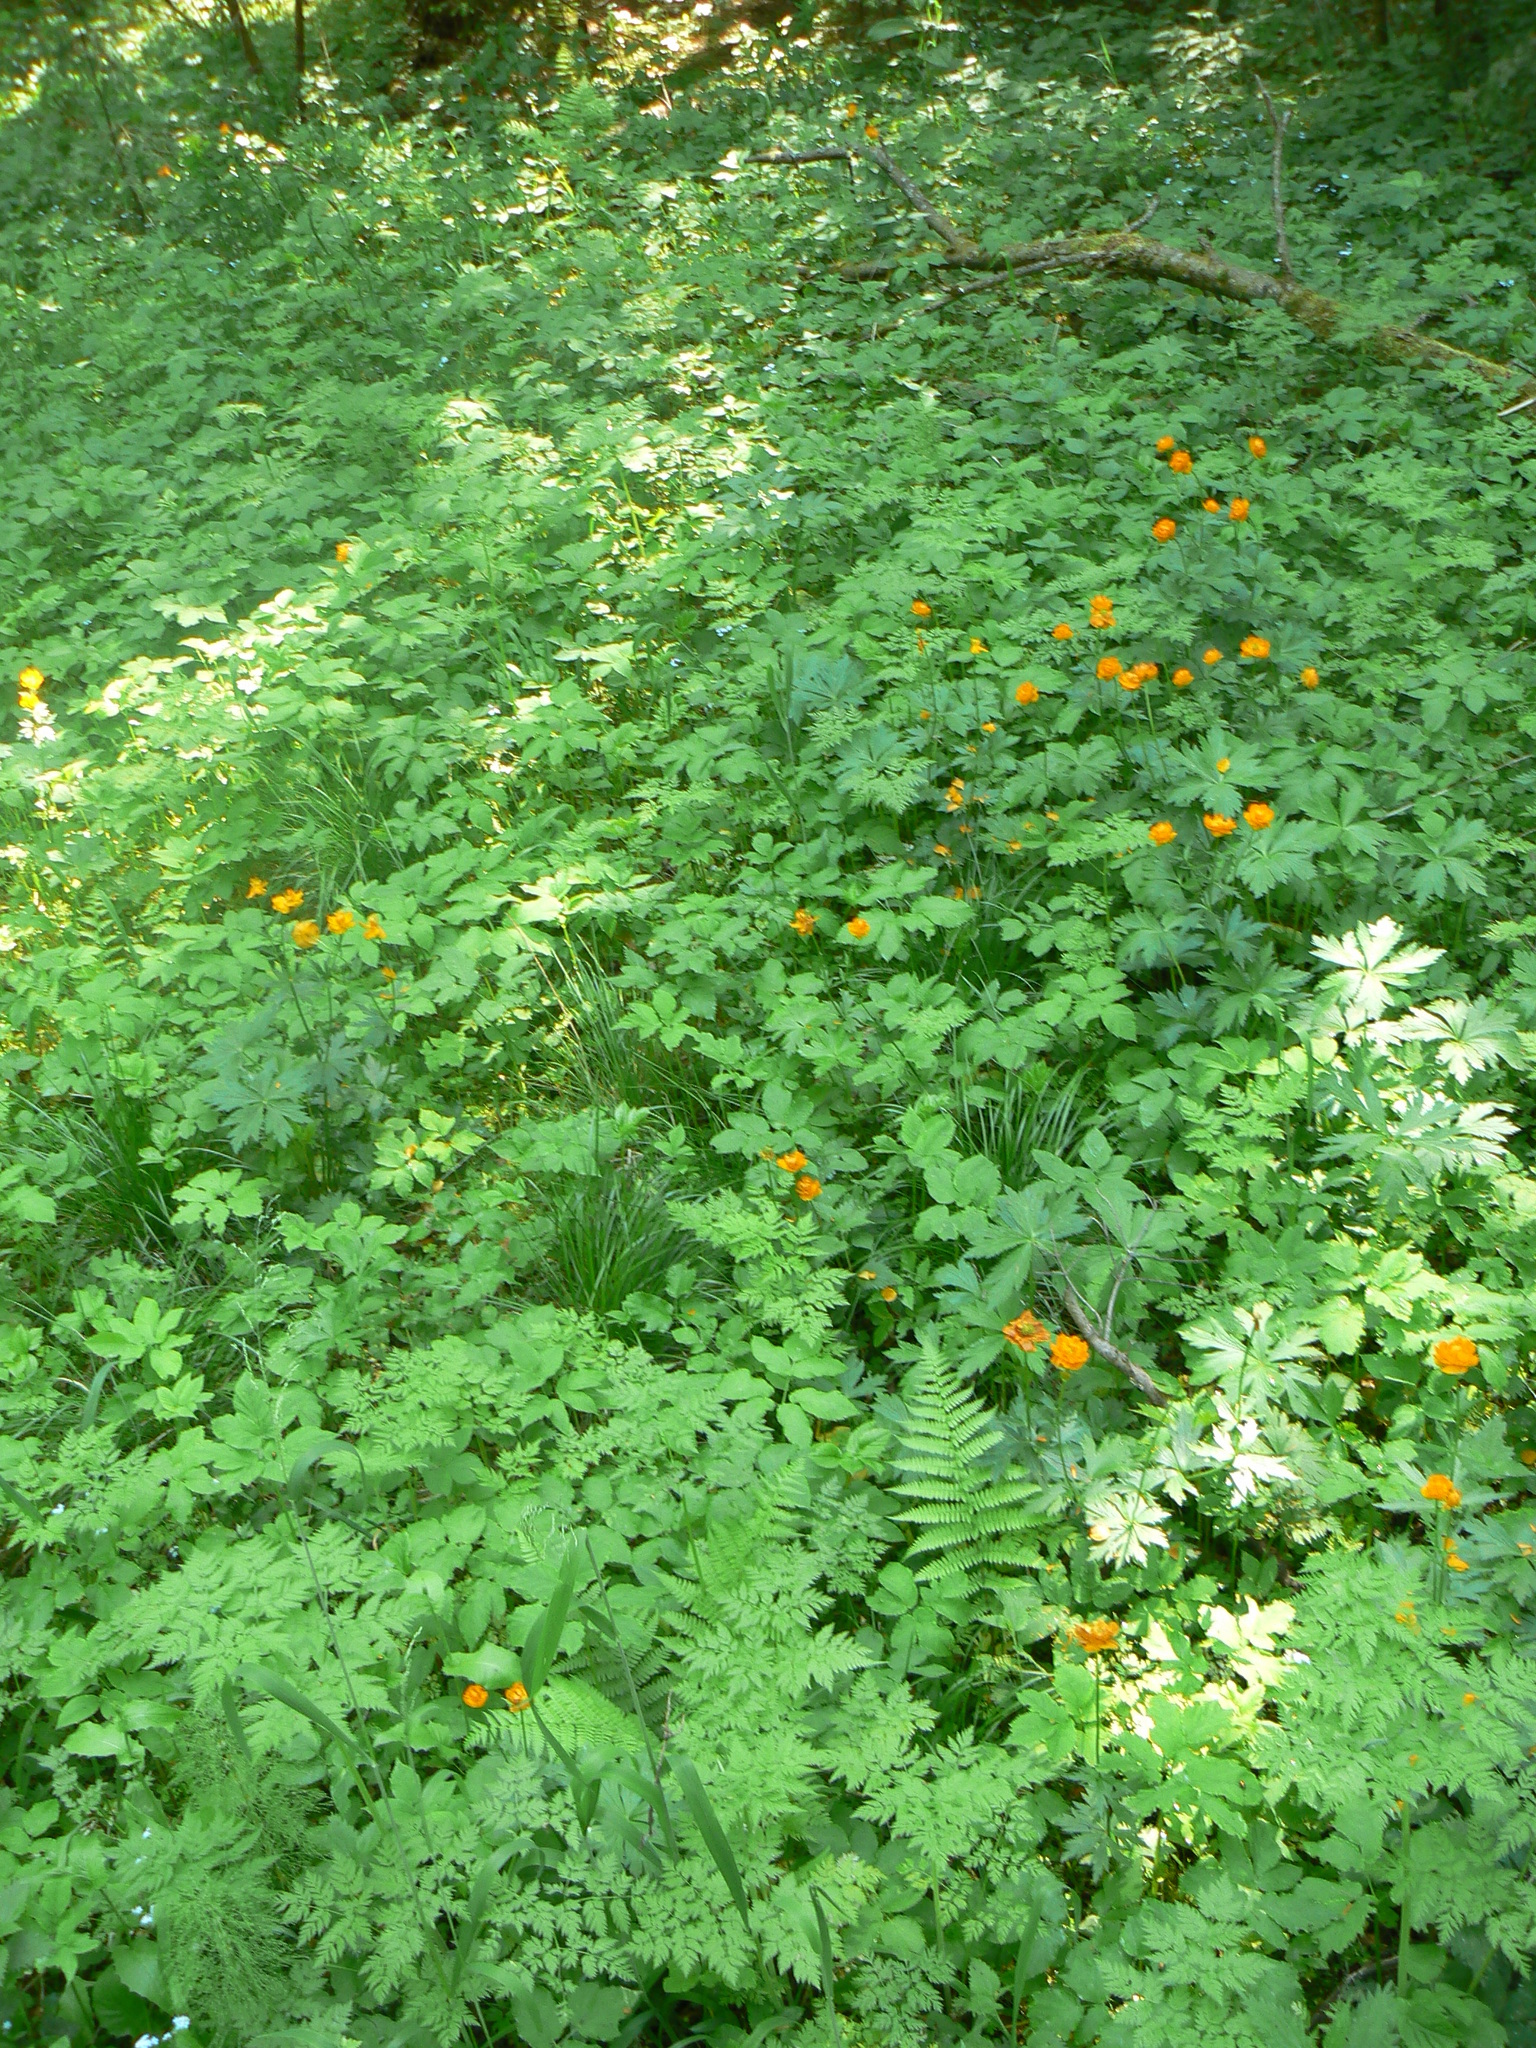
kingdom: Plantae
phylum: Tracheophyta
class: Magnoliopsida
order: Ranunculales
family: Ranunculaceae
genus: Trollius
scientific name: Trollius asiaticus
